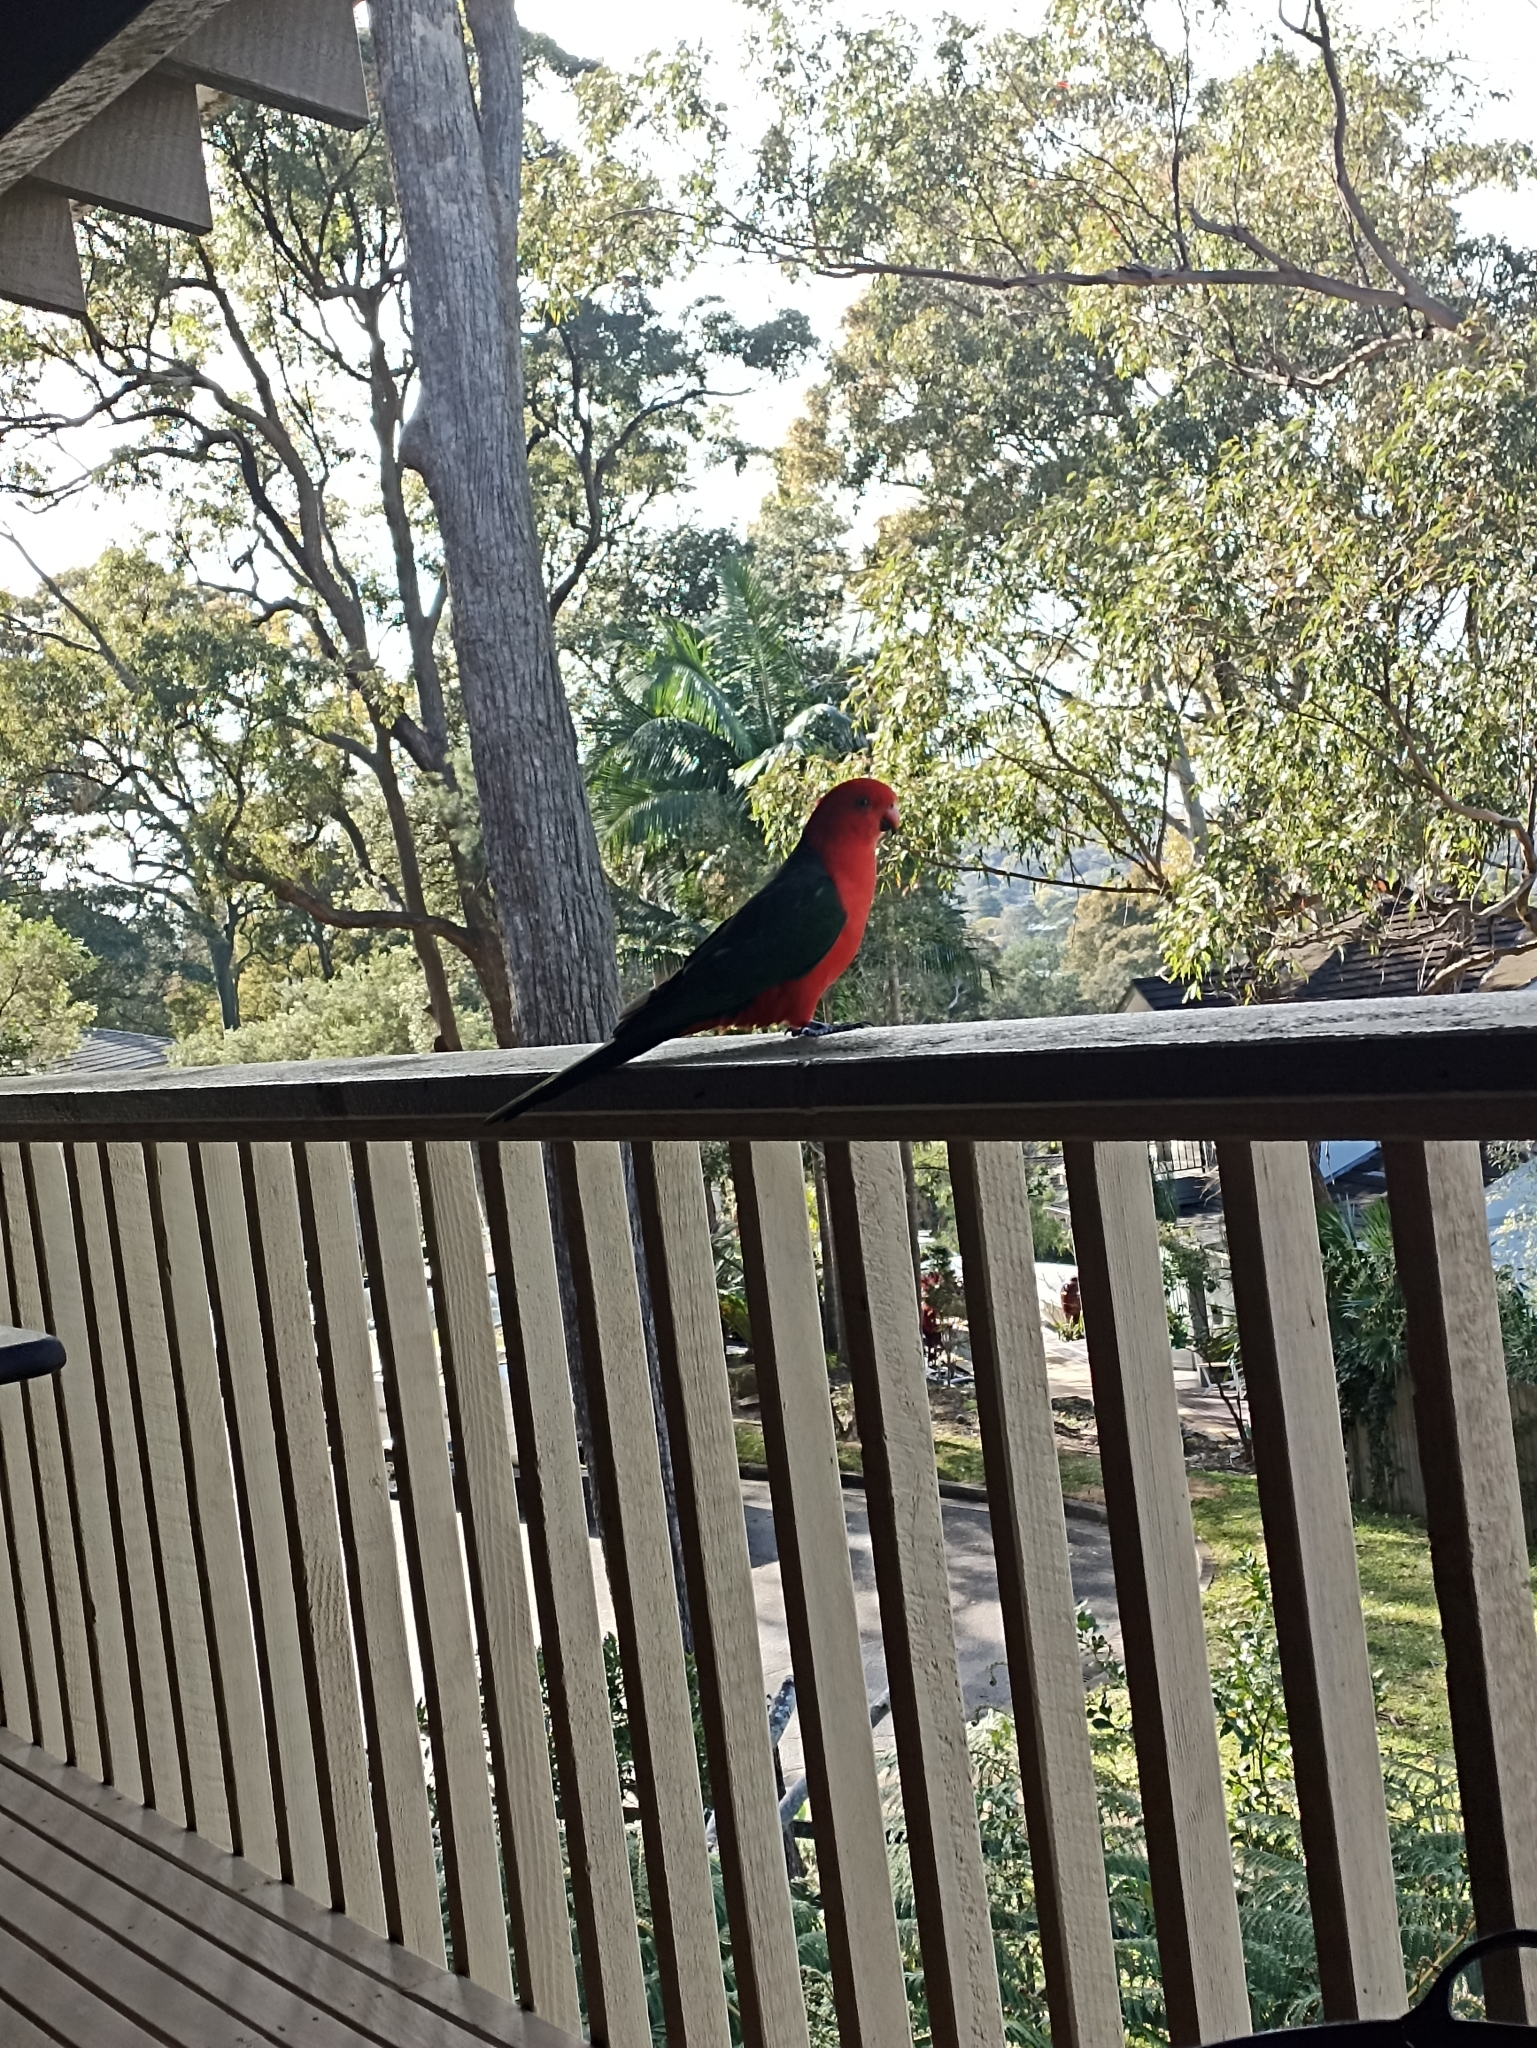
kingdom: Animalia
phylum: Chordata
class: Aves
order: Psittaciformes
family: Psittacidae
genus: Alisterus
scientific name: Alisterus scapularis
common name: Australian king parrot
